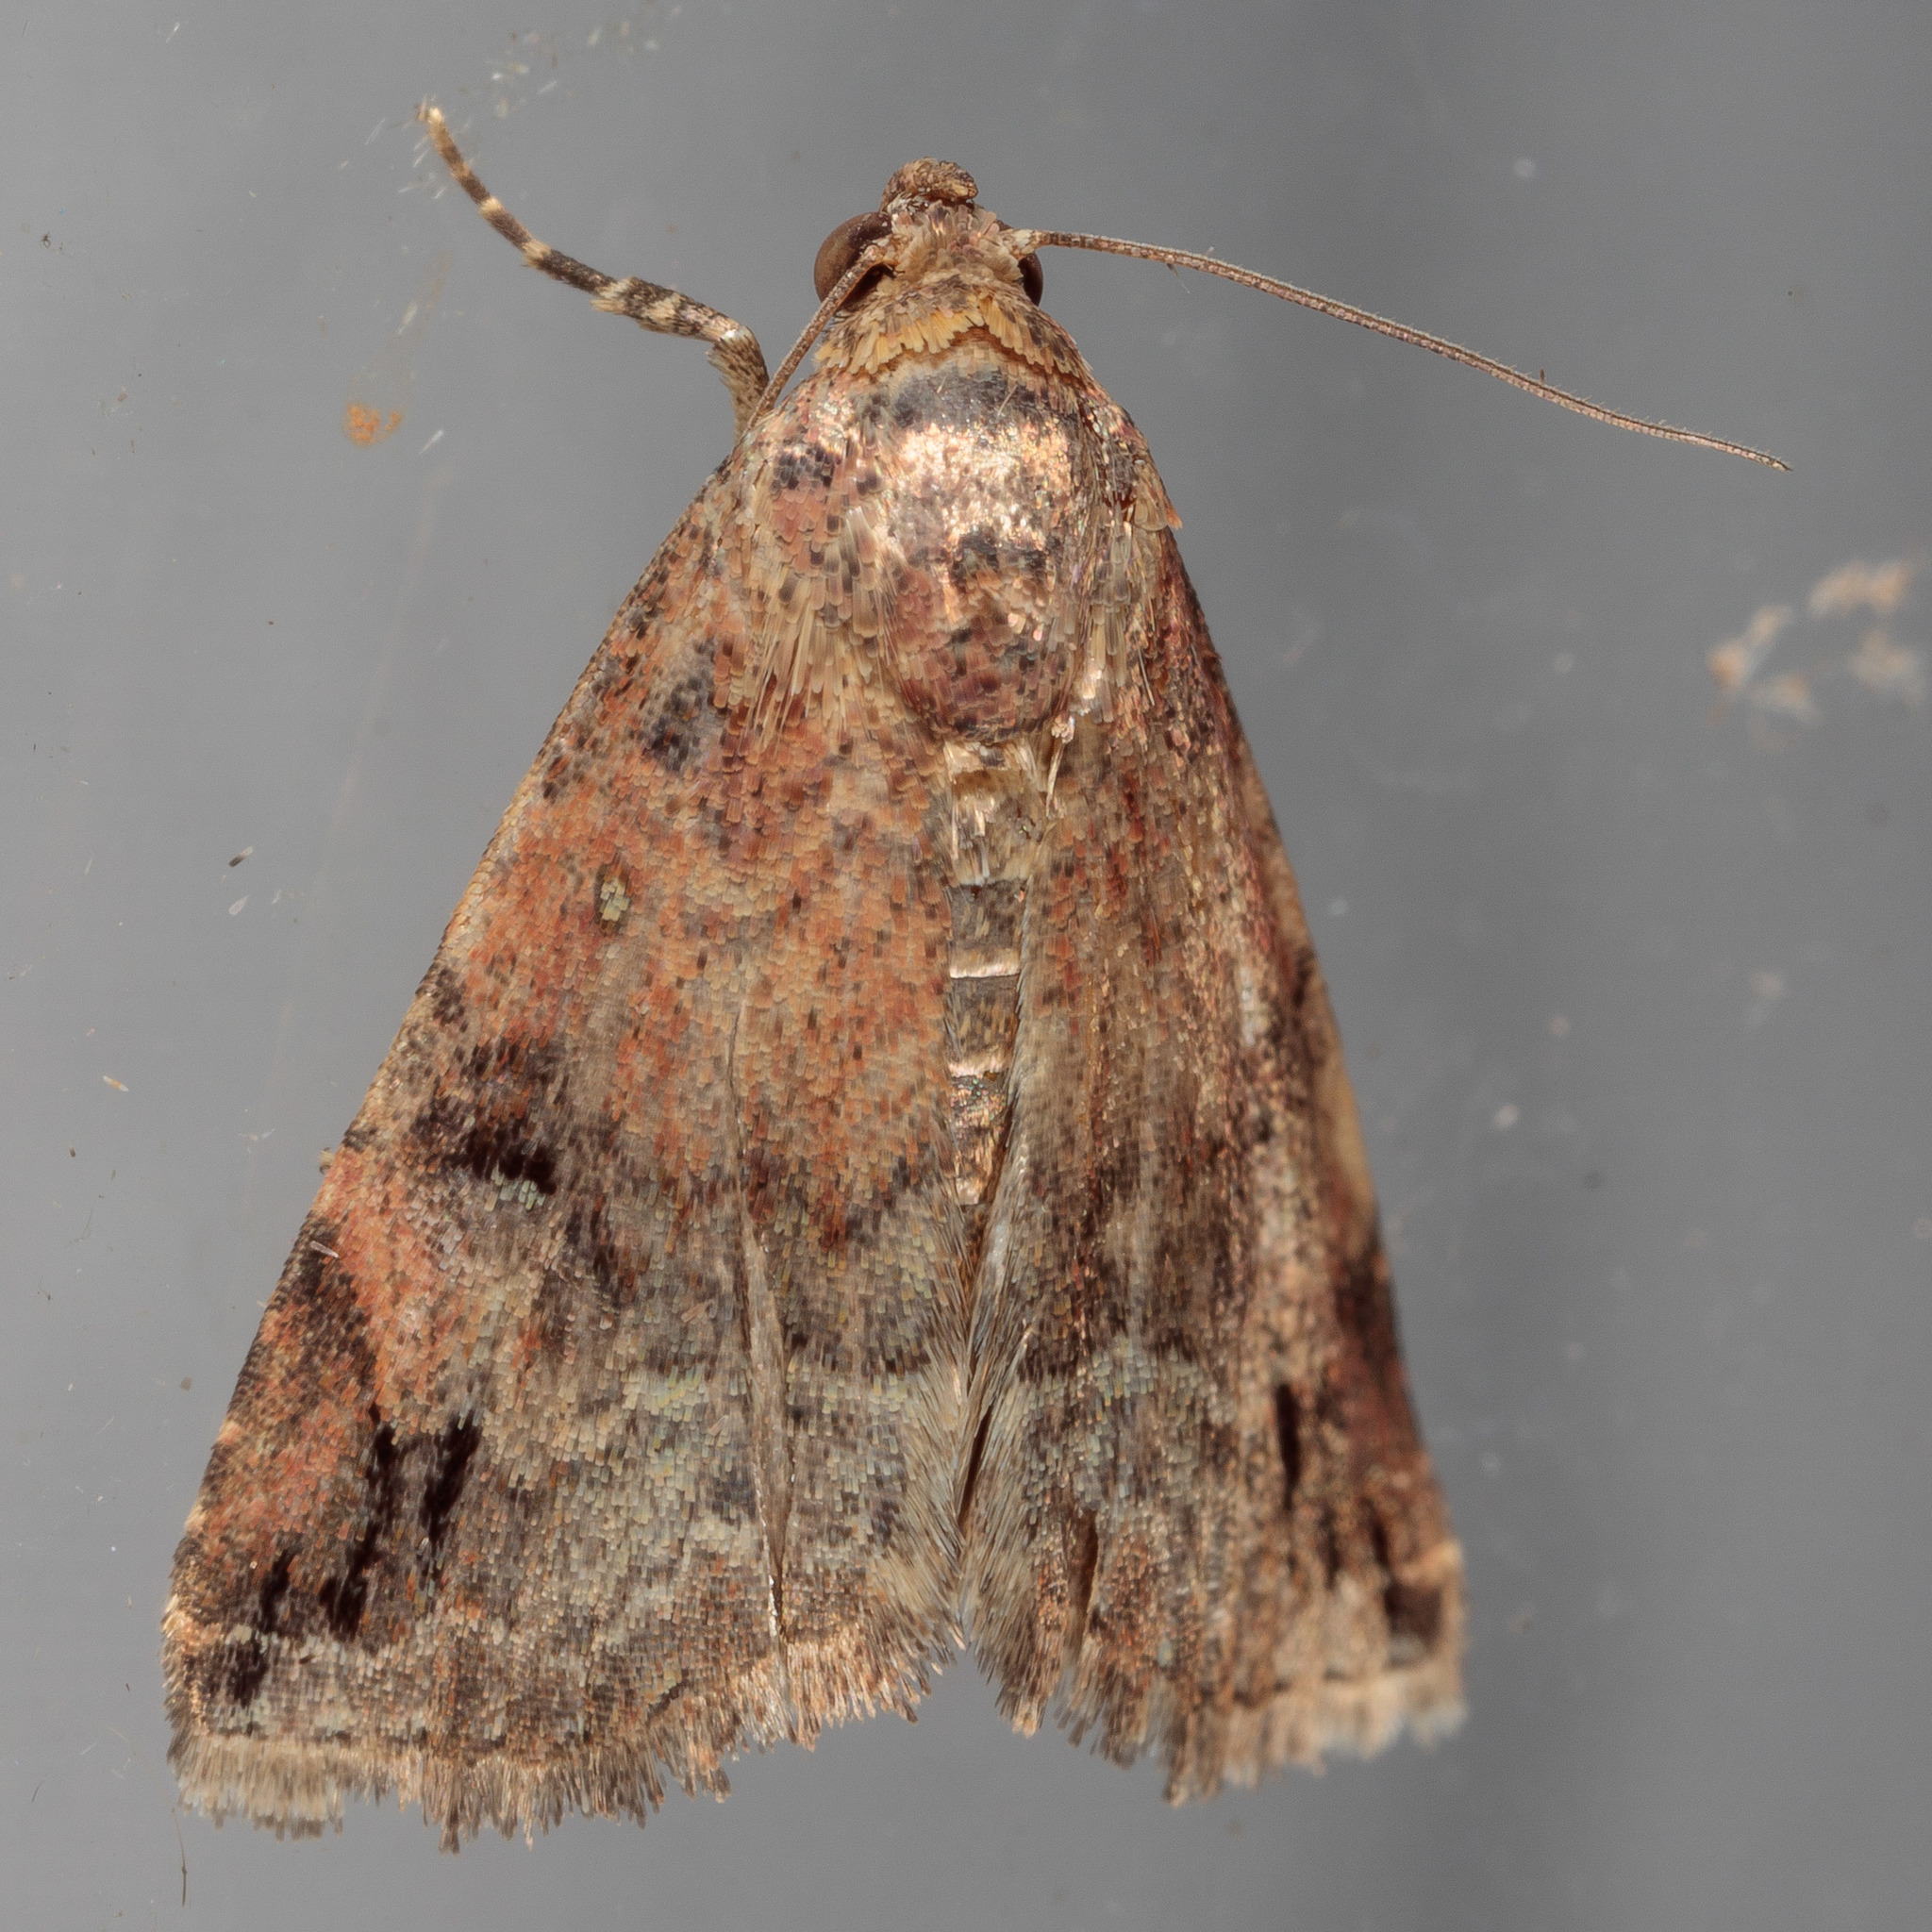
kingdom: Animalia
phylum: Arthropoda
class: Insecta
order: Lepidoptera
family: Noctuidae
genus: Ozarba
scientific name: Ozarba aeria
